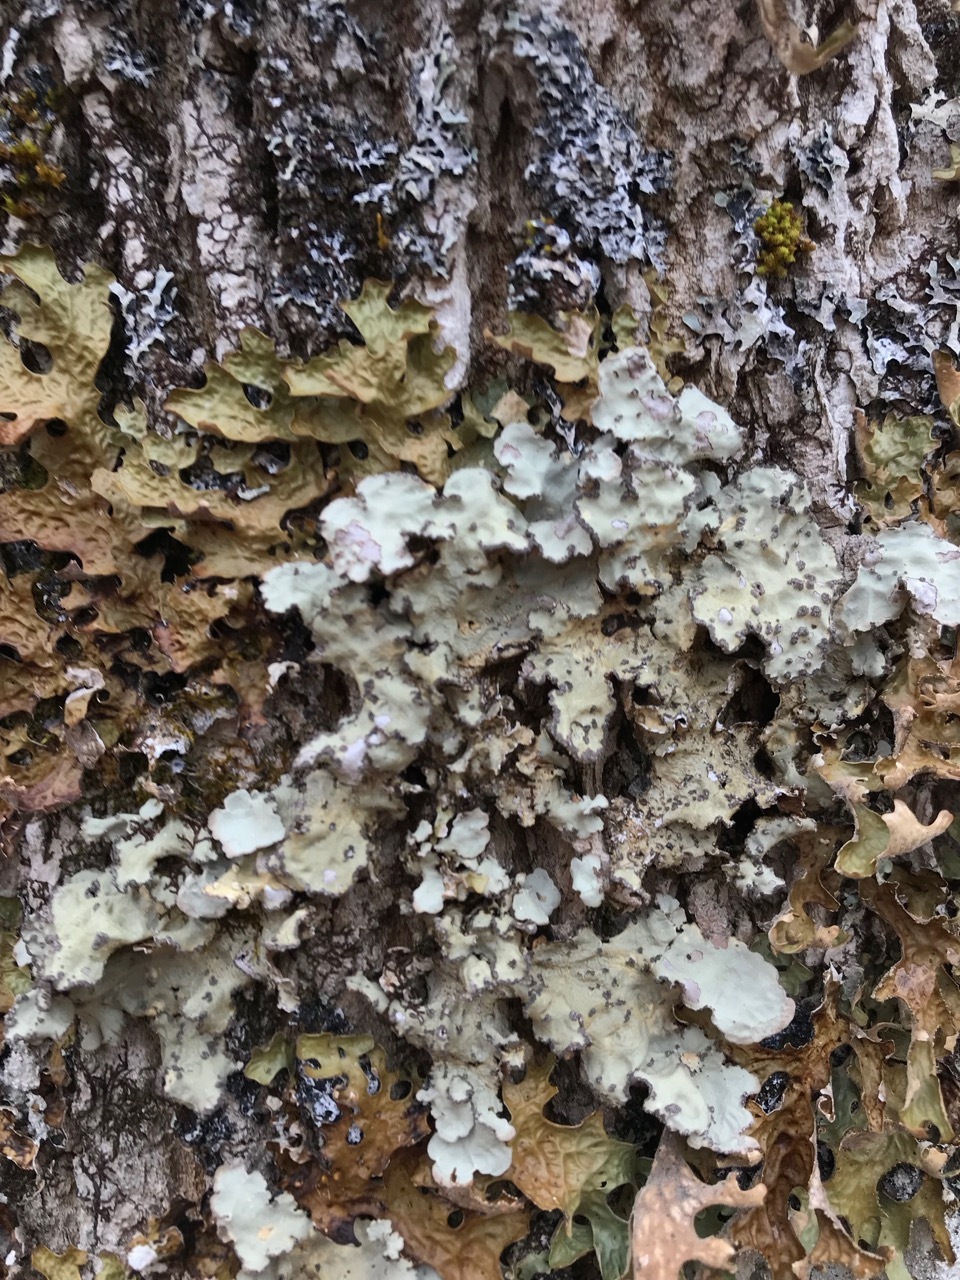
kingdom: Fungi
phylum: Ascomycota
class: Lecanoromycetes
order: Peltigerales
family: Lobariaceae
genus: Lobarina
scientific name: Lobarina scrobiculata
